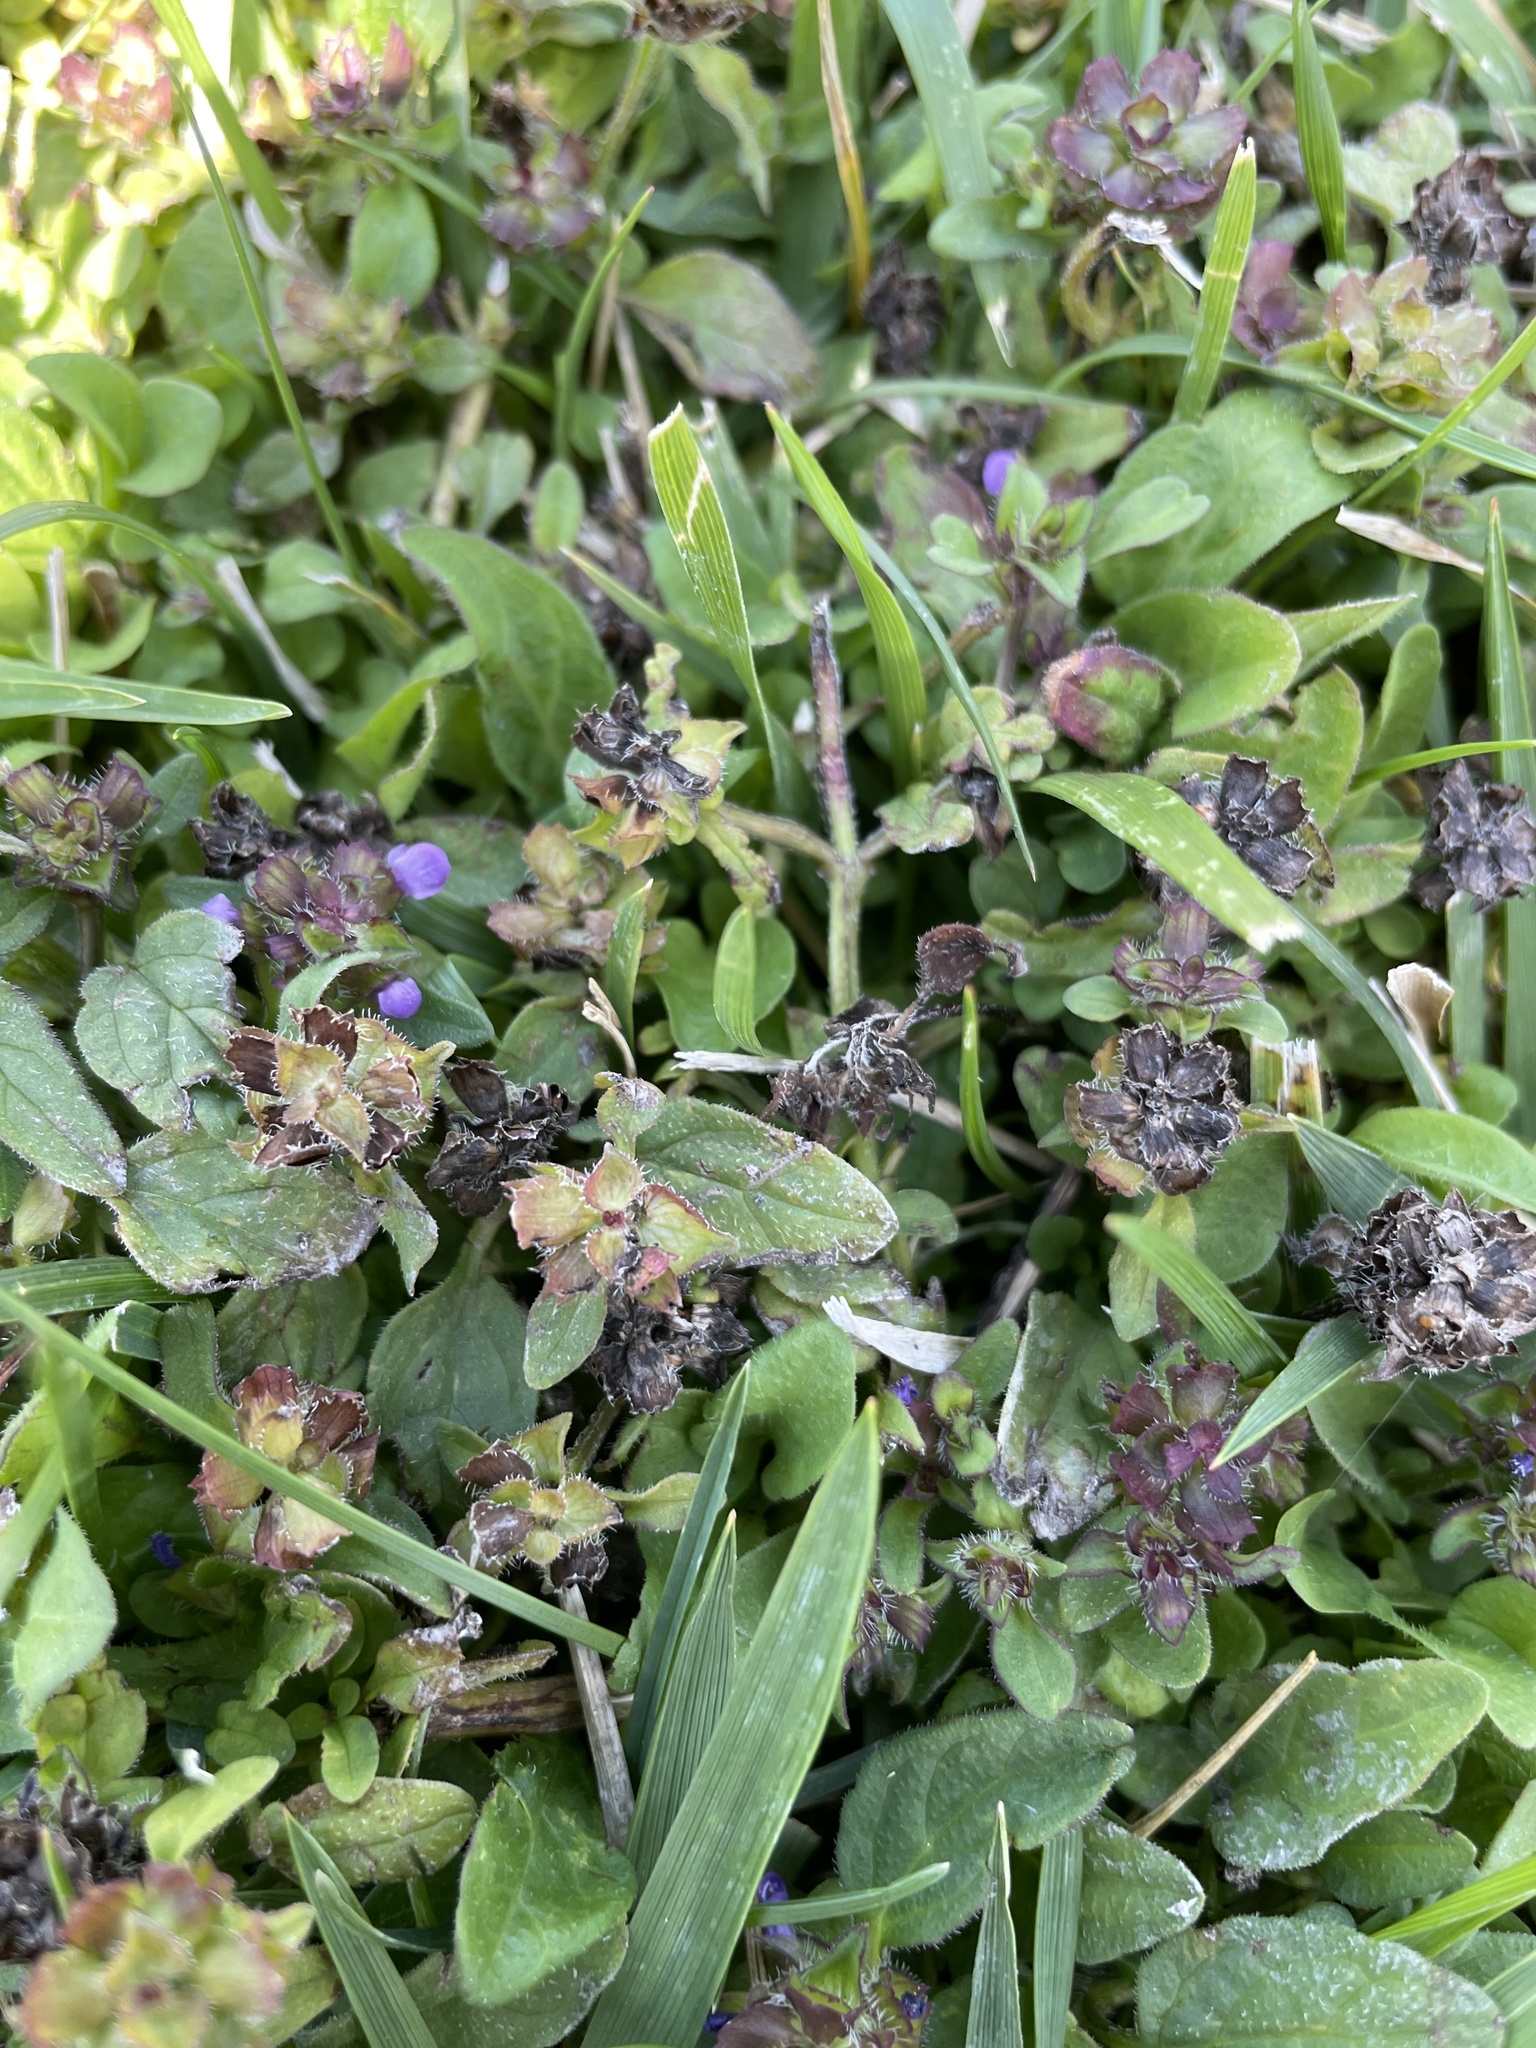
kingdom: Plantae
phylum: Tracheophyta
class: Magnoliopsida
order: Lamiales
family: Lamiaceae
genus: Prunella
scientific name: Prunella vulgaris
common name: Heal-all
